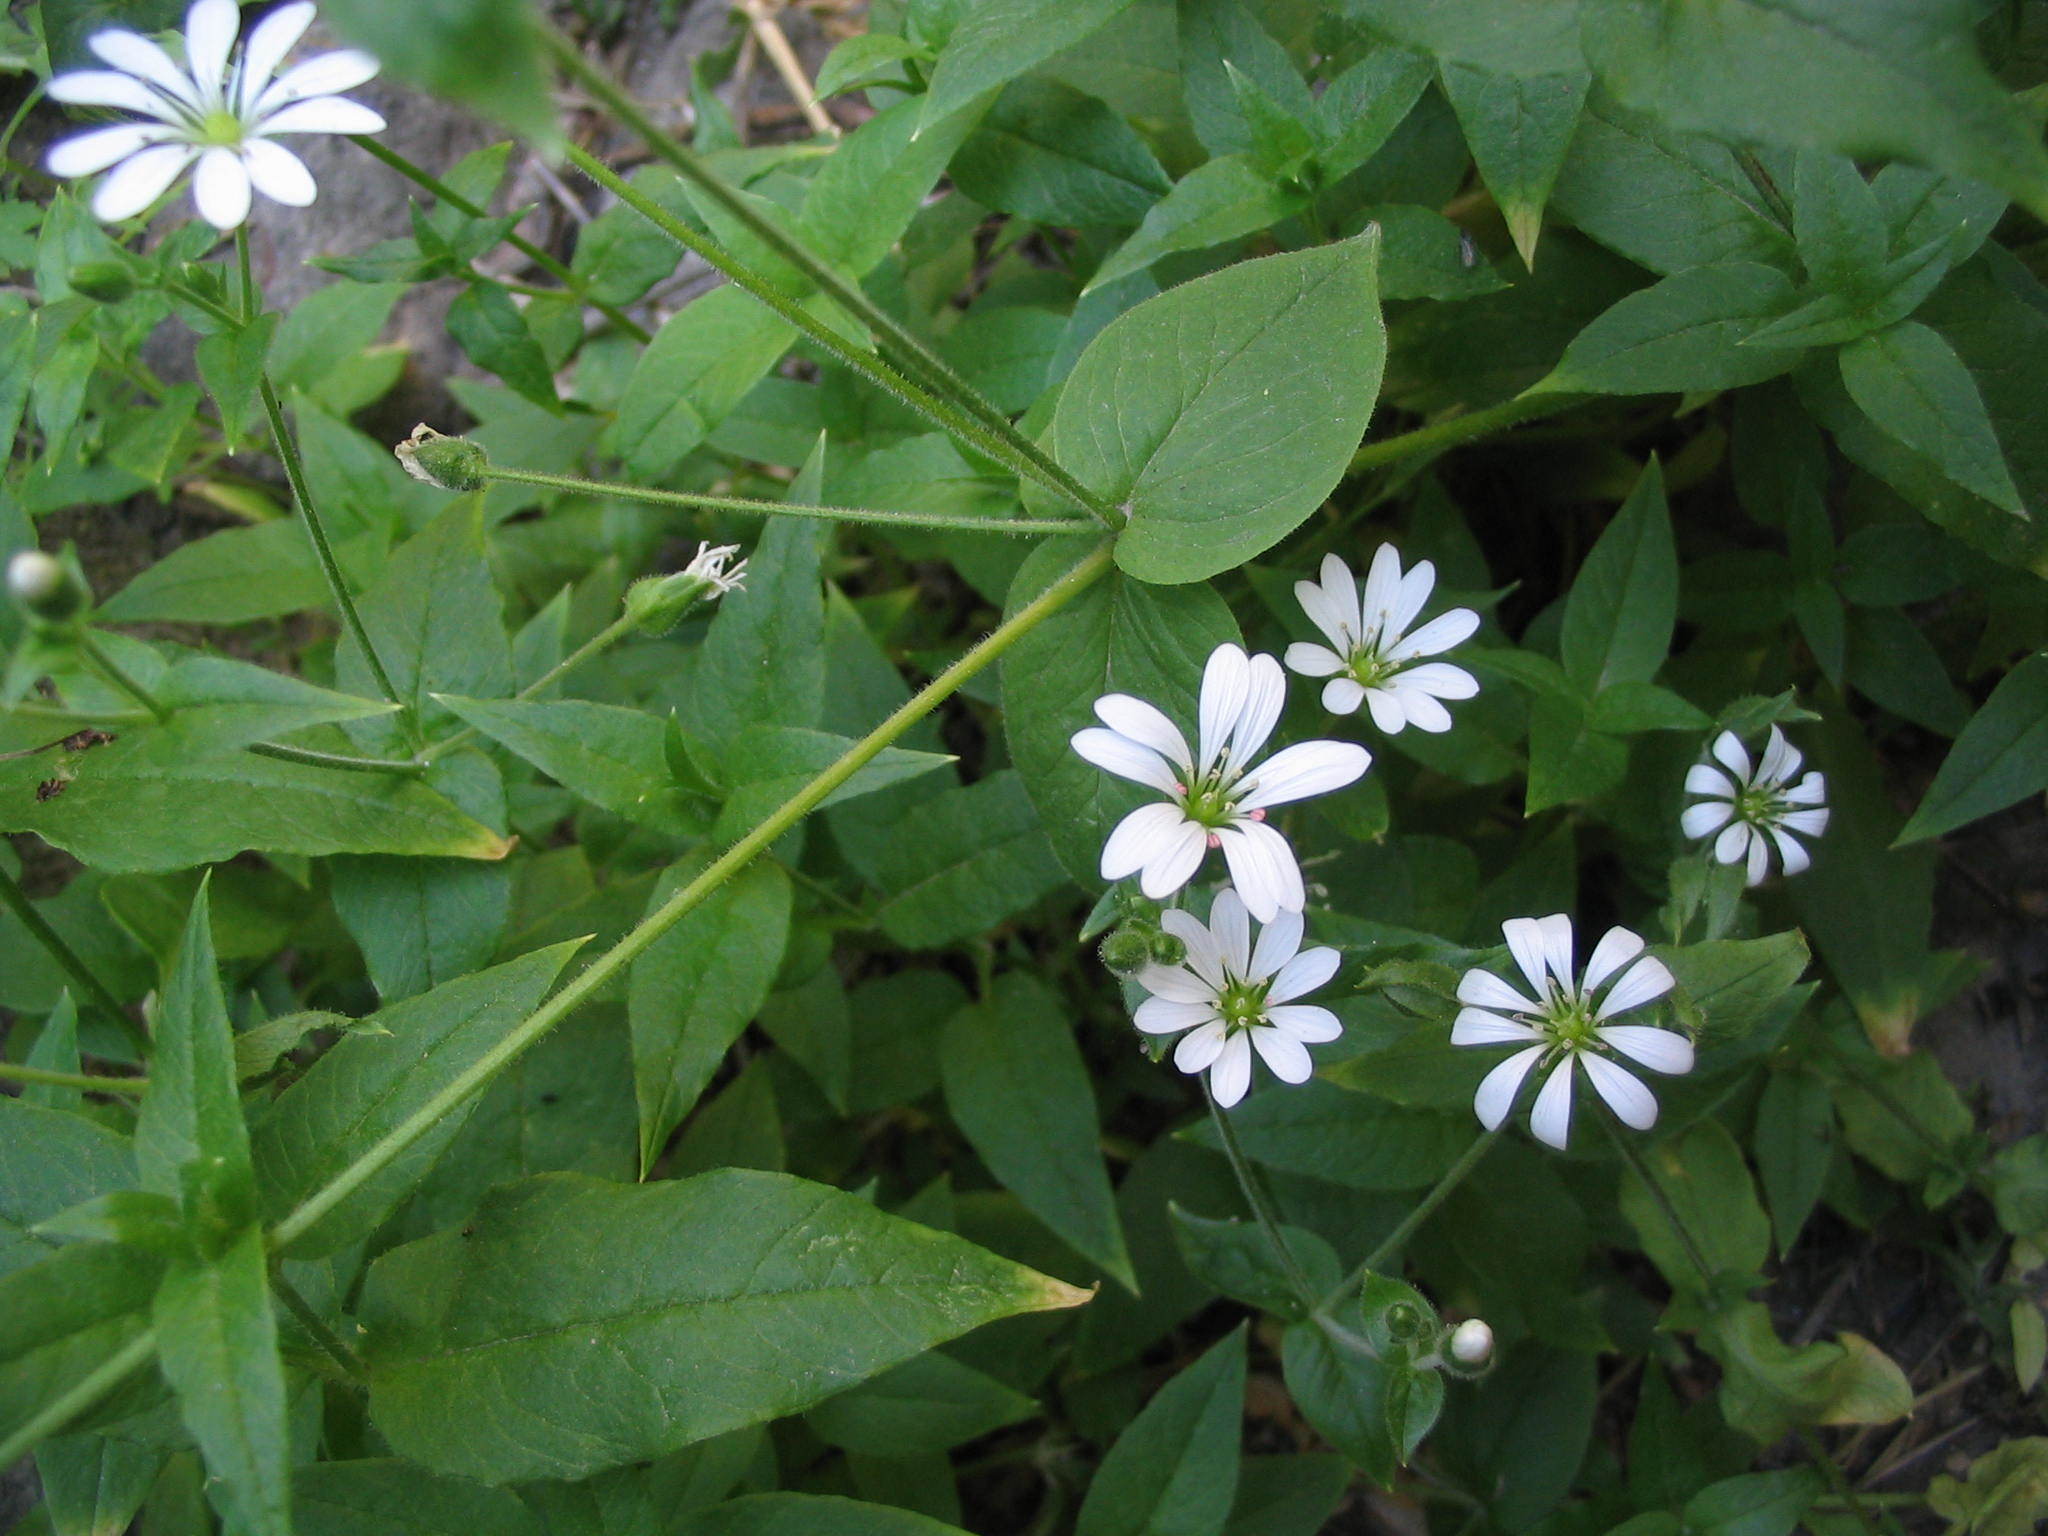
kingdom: Plantae
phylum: Tracheophyta
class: Magnoliopsida
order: Caryophyllales
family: Caryophyllaceae
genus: Stellaria
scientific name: Stellaria cuspidata
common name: Mexican chickweed
